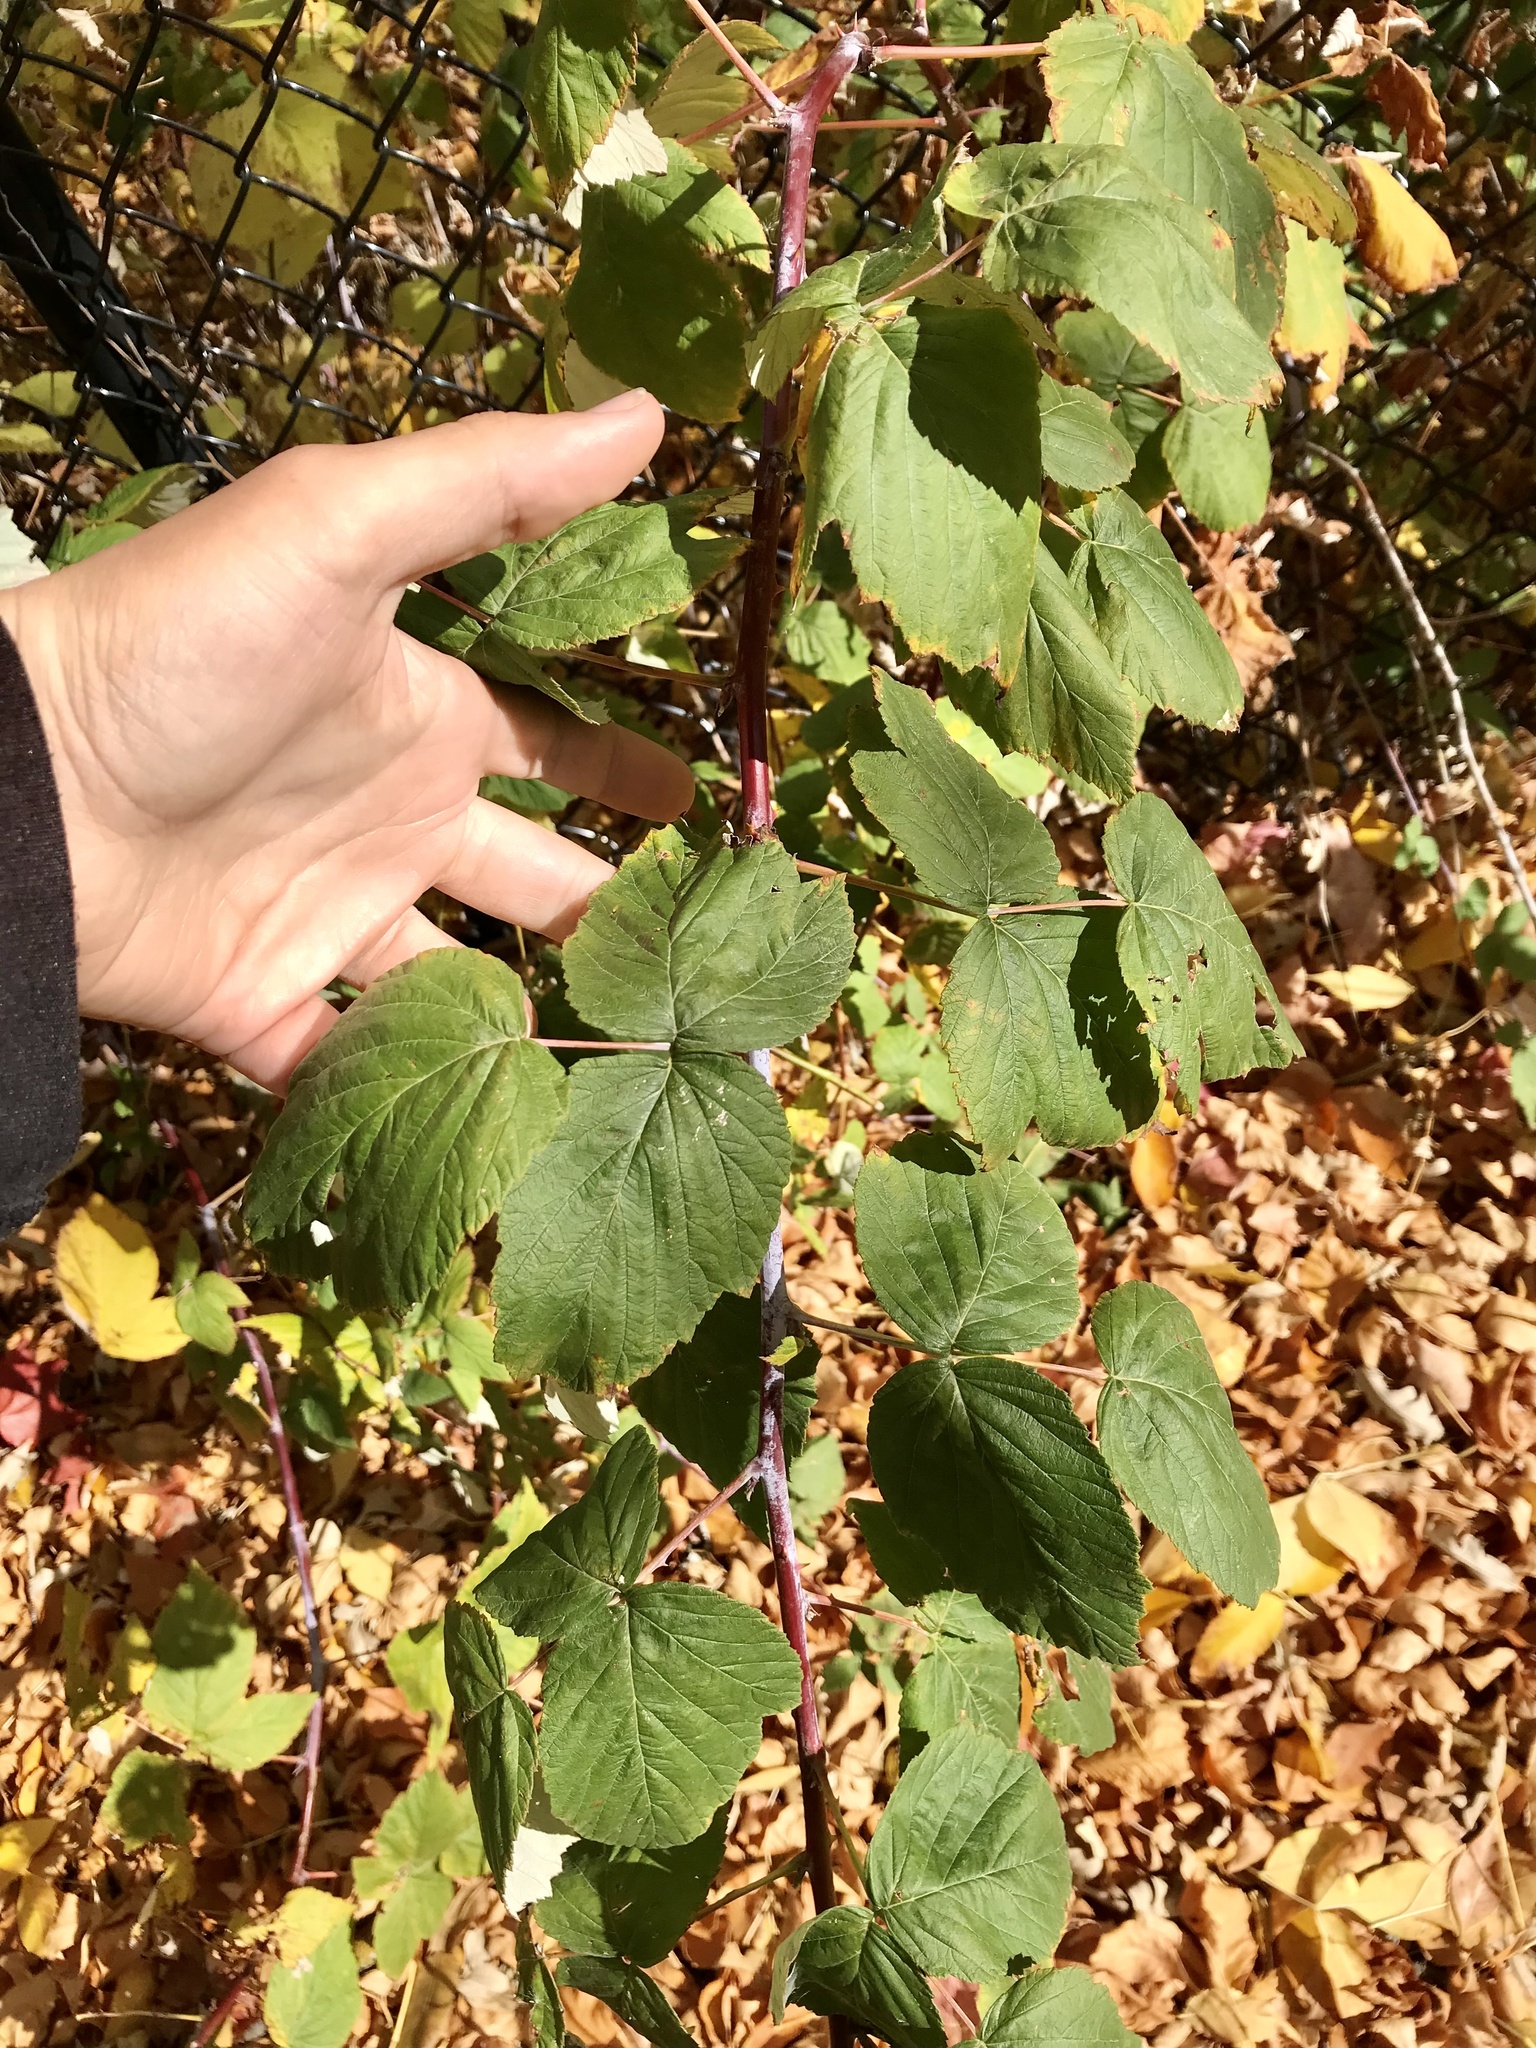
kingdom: Plantae
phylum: Tracheophyta
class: Magnoliopsida
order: Rosales
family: Rosaceae
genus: Rubus
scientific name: Rubus occidentalis
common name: Black raspberry
